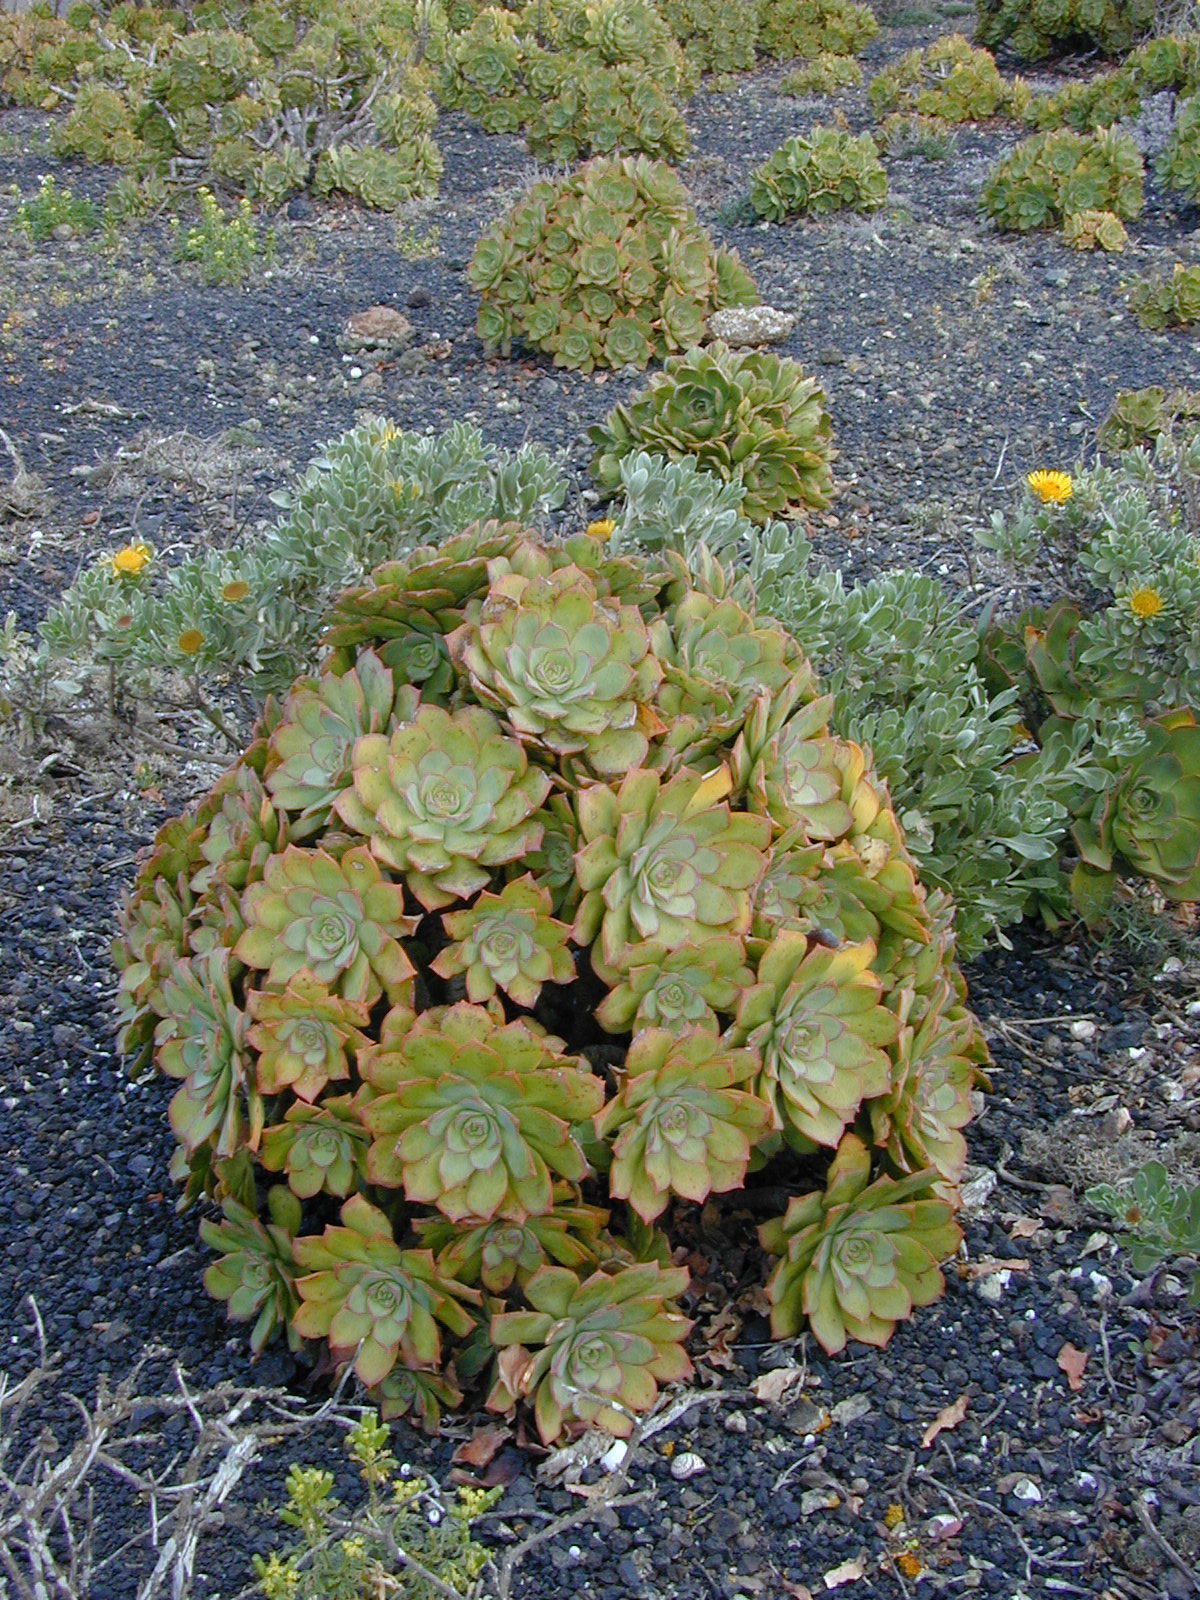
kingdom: Plantae
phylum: Tracheophyta
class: Magnoliopsida
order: Saxifragales
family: Crassulaceae
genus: Aeonium
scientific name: Aeonium lancerottense
